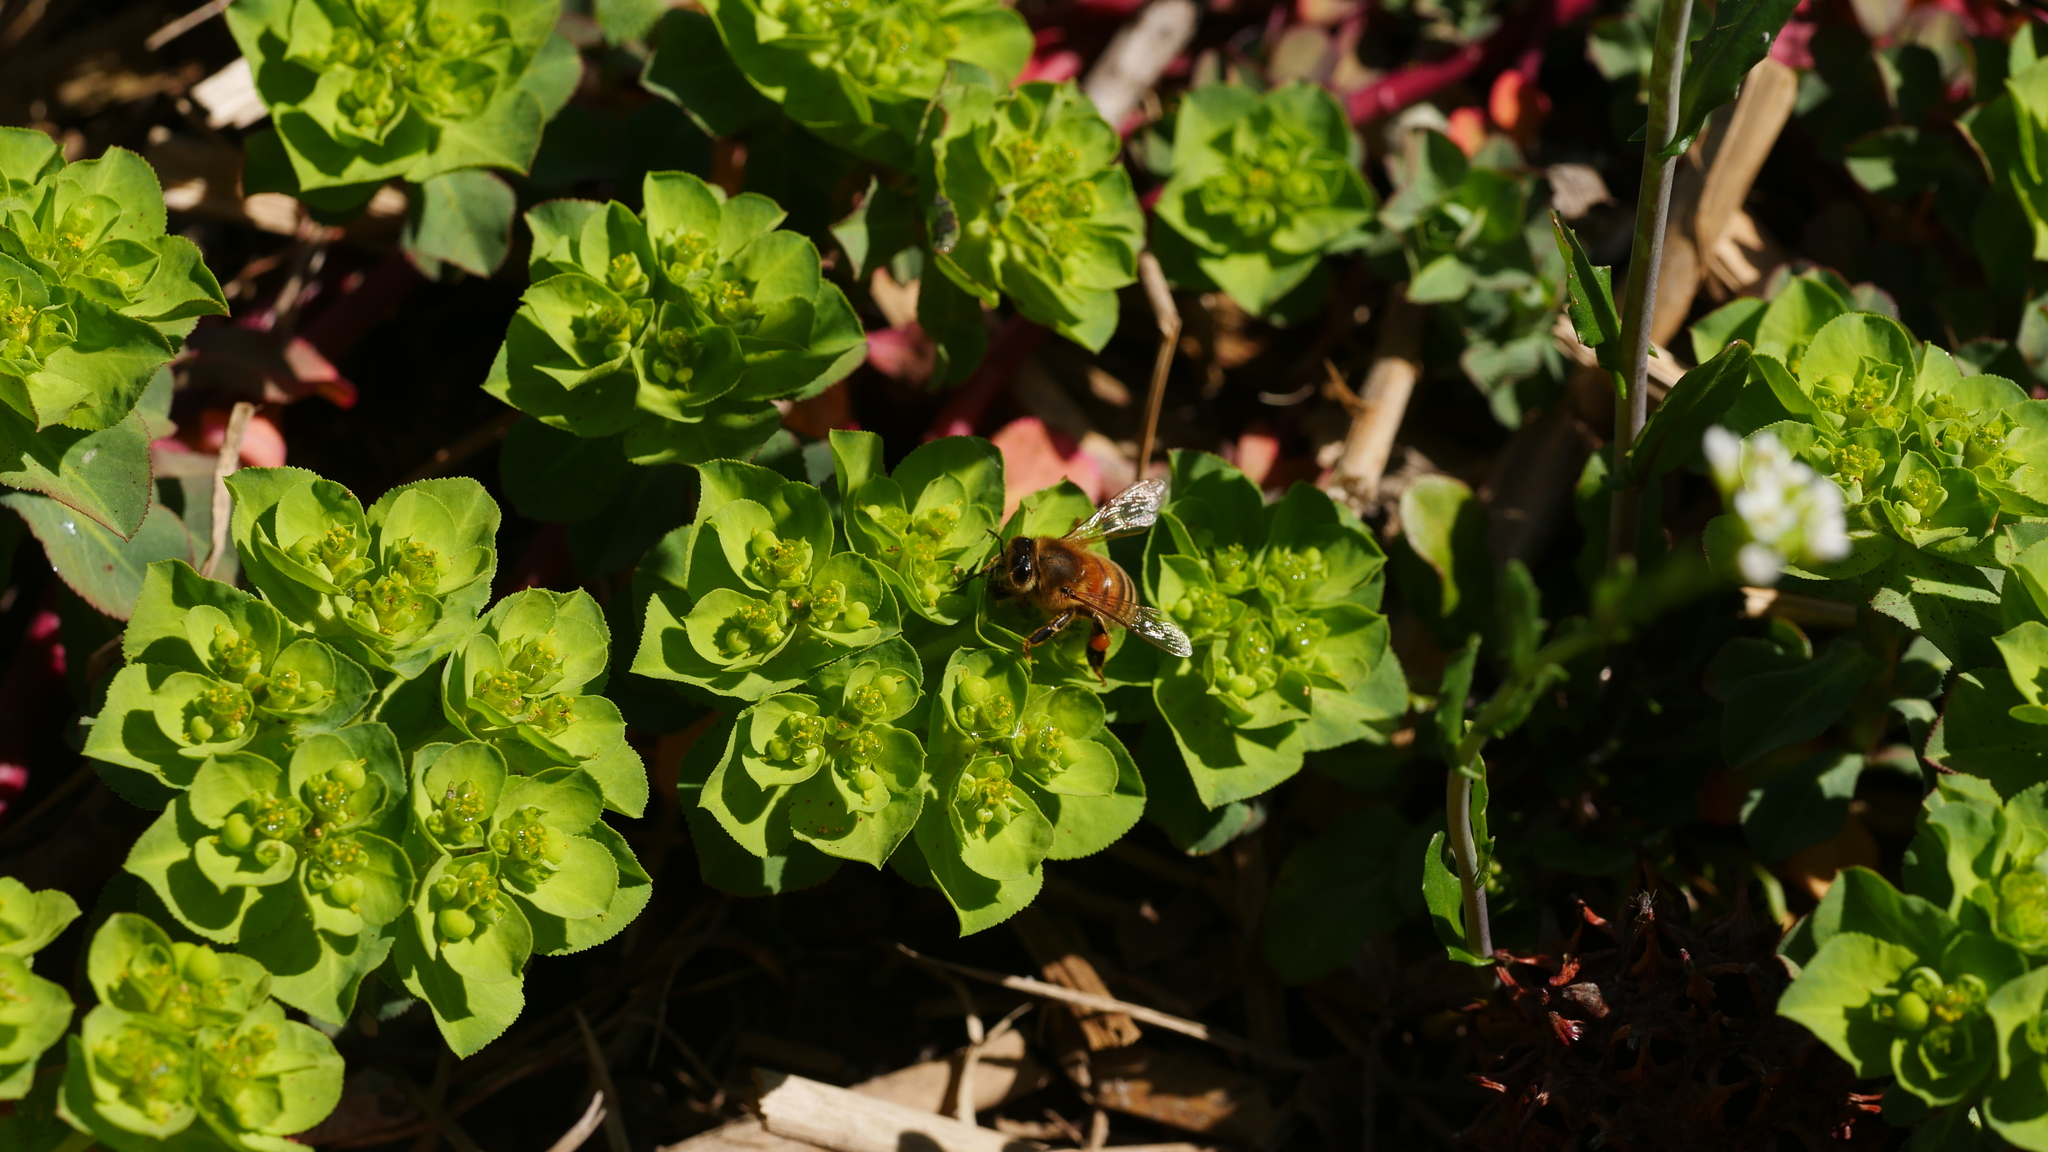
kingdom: Animalia
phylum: Arthropoda
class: Insecta
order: Hymenoptera
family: Apidae
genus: Apis
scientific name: Apis mellifera
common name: Honey bee
